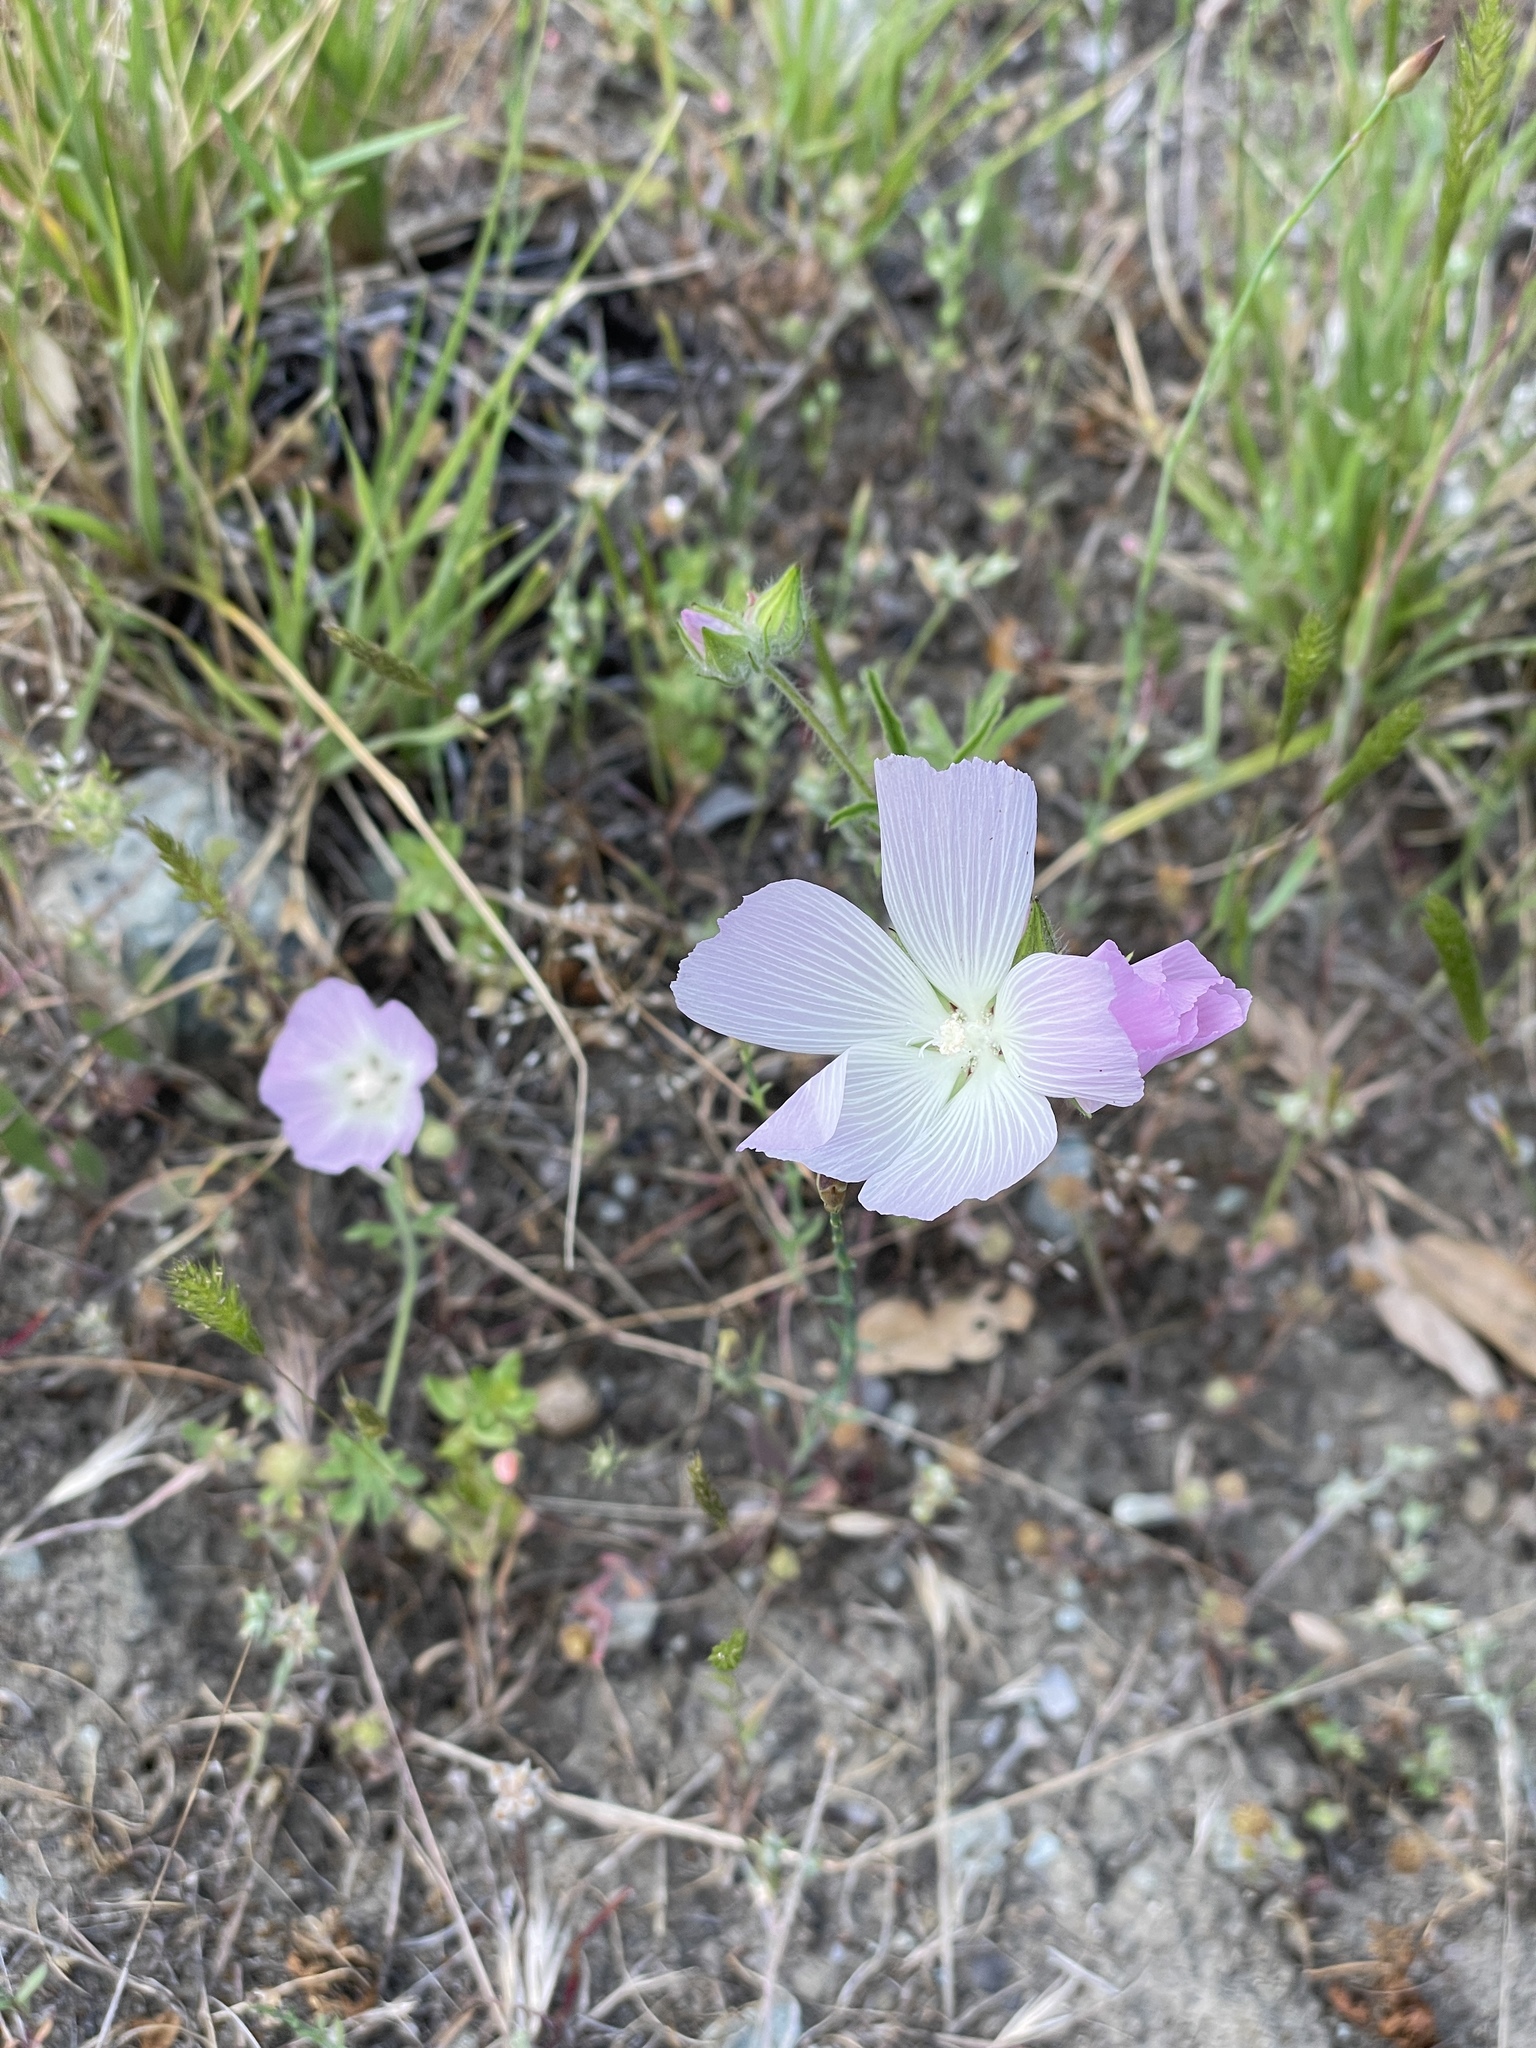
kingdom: Plantae
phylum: Tracheophyta
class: Magnoliopsida
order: Malvales
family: Malvaceae
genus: Sidalcea
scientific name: Sidalcea diploscypha
